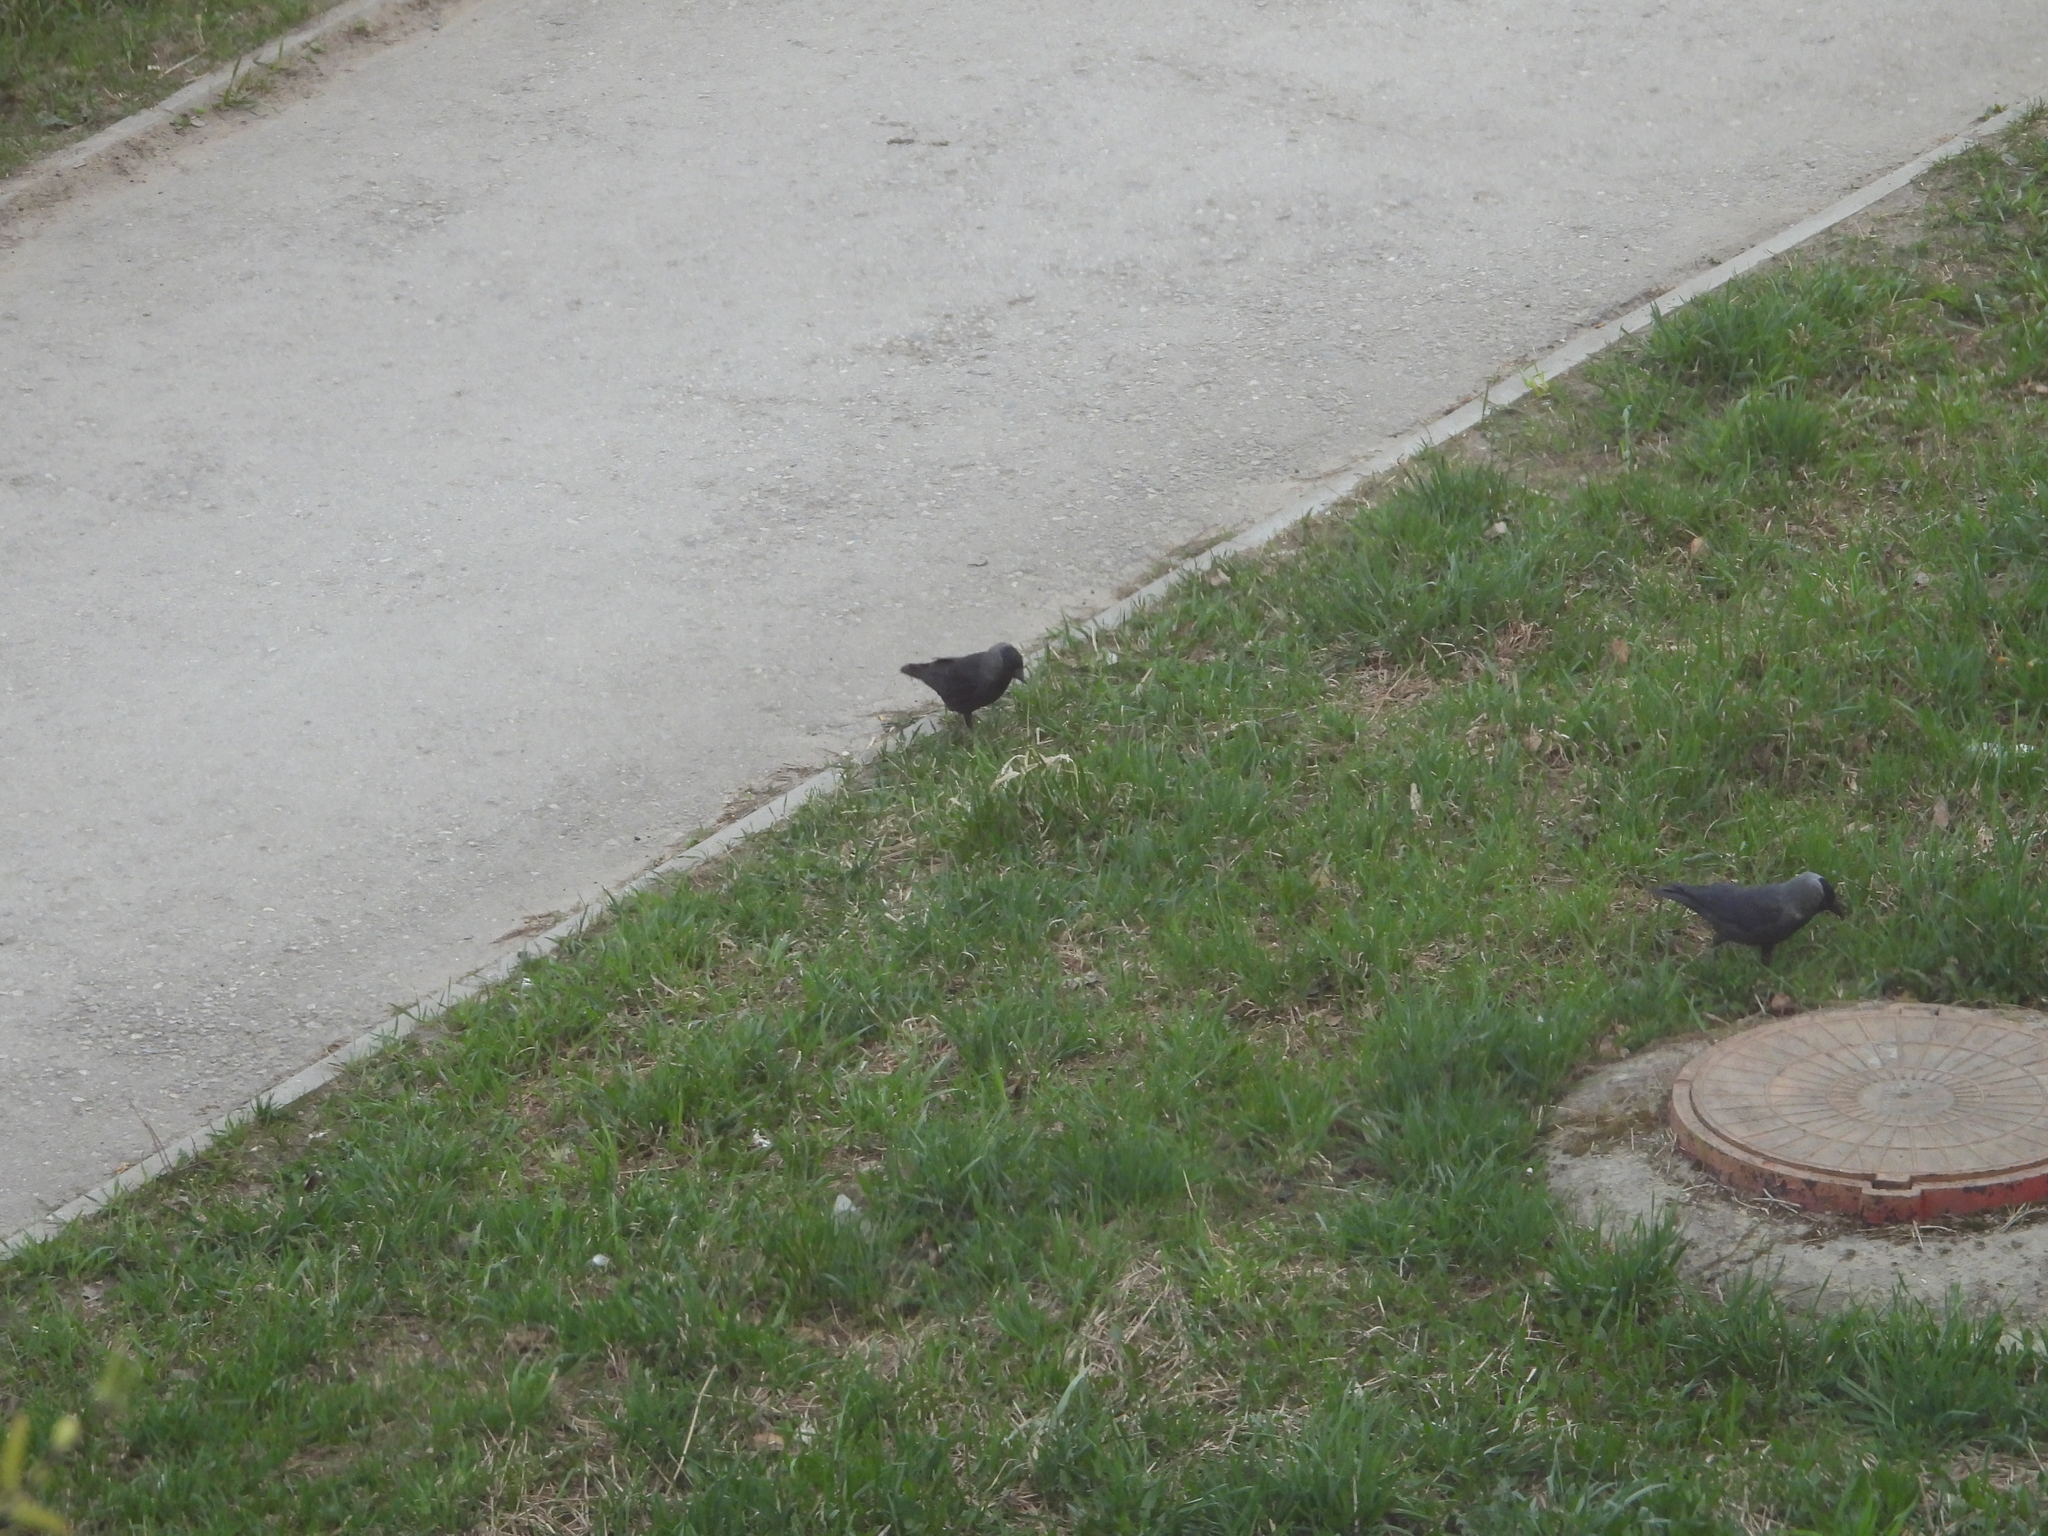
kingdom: Animalia
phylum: Chordata
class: Aves
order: Passeriformes
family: Corvidae
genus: Coloeus
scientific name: Coloeus monedula
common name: Western jackdaw
